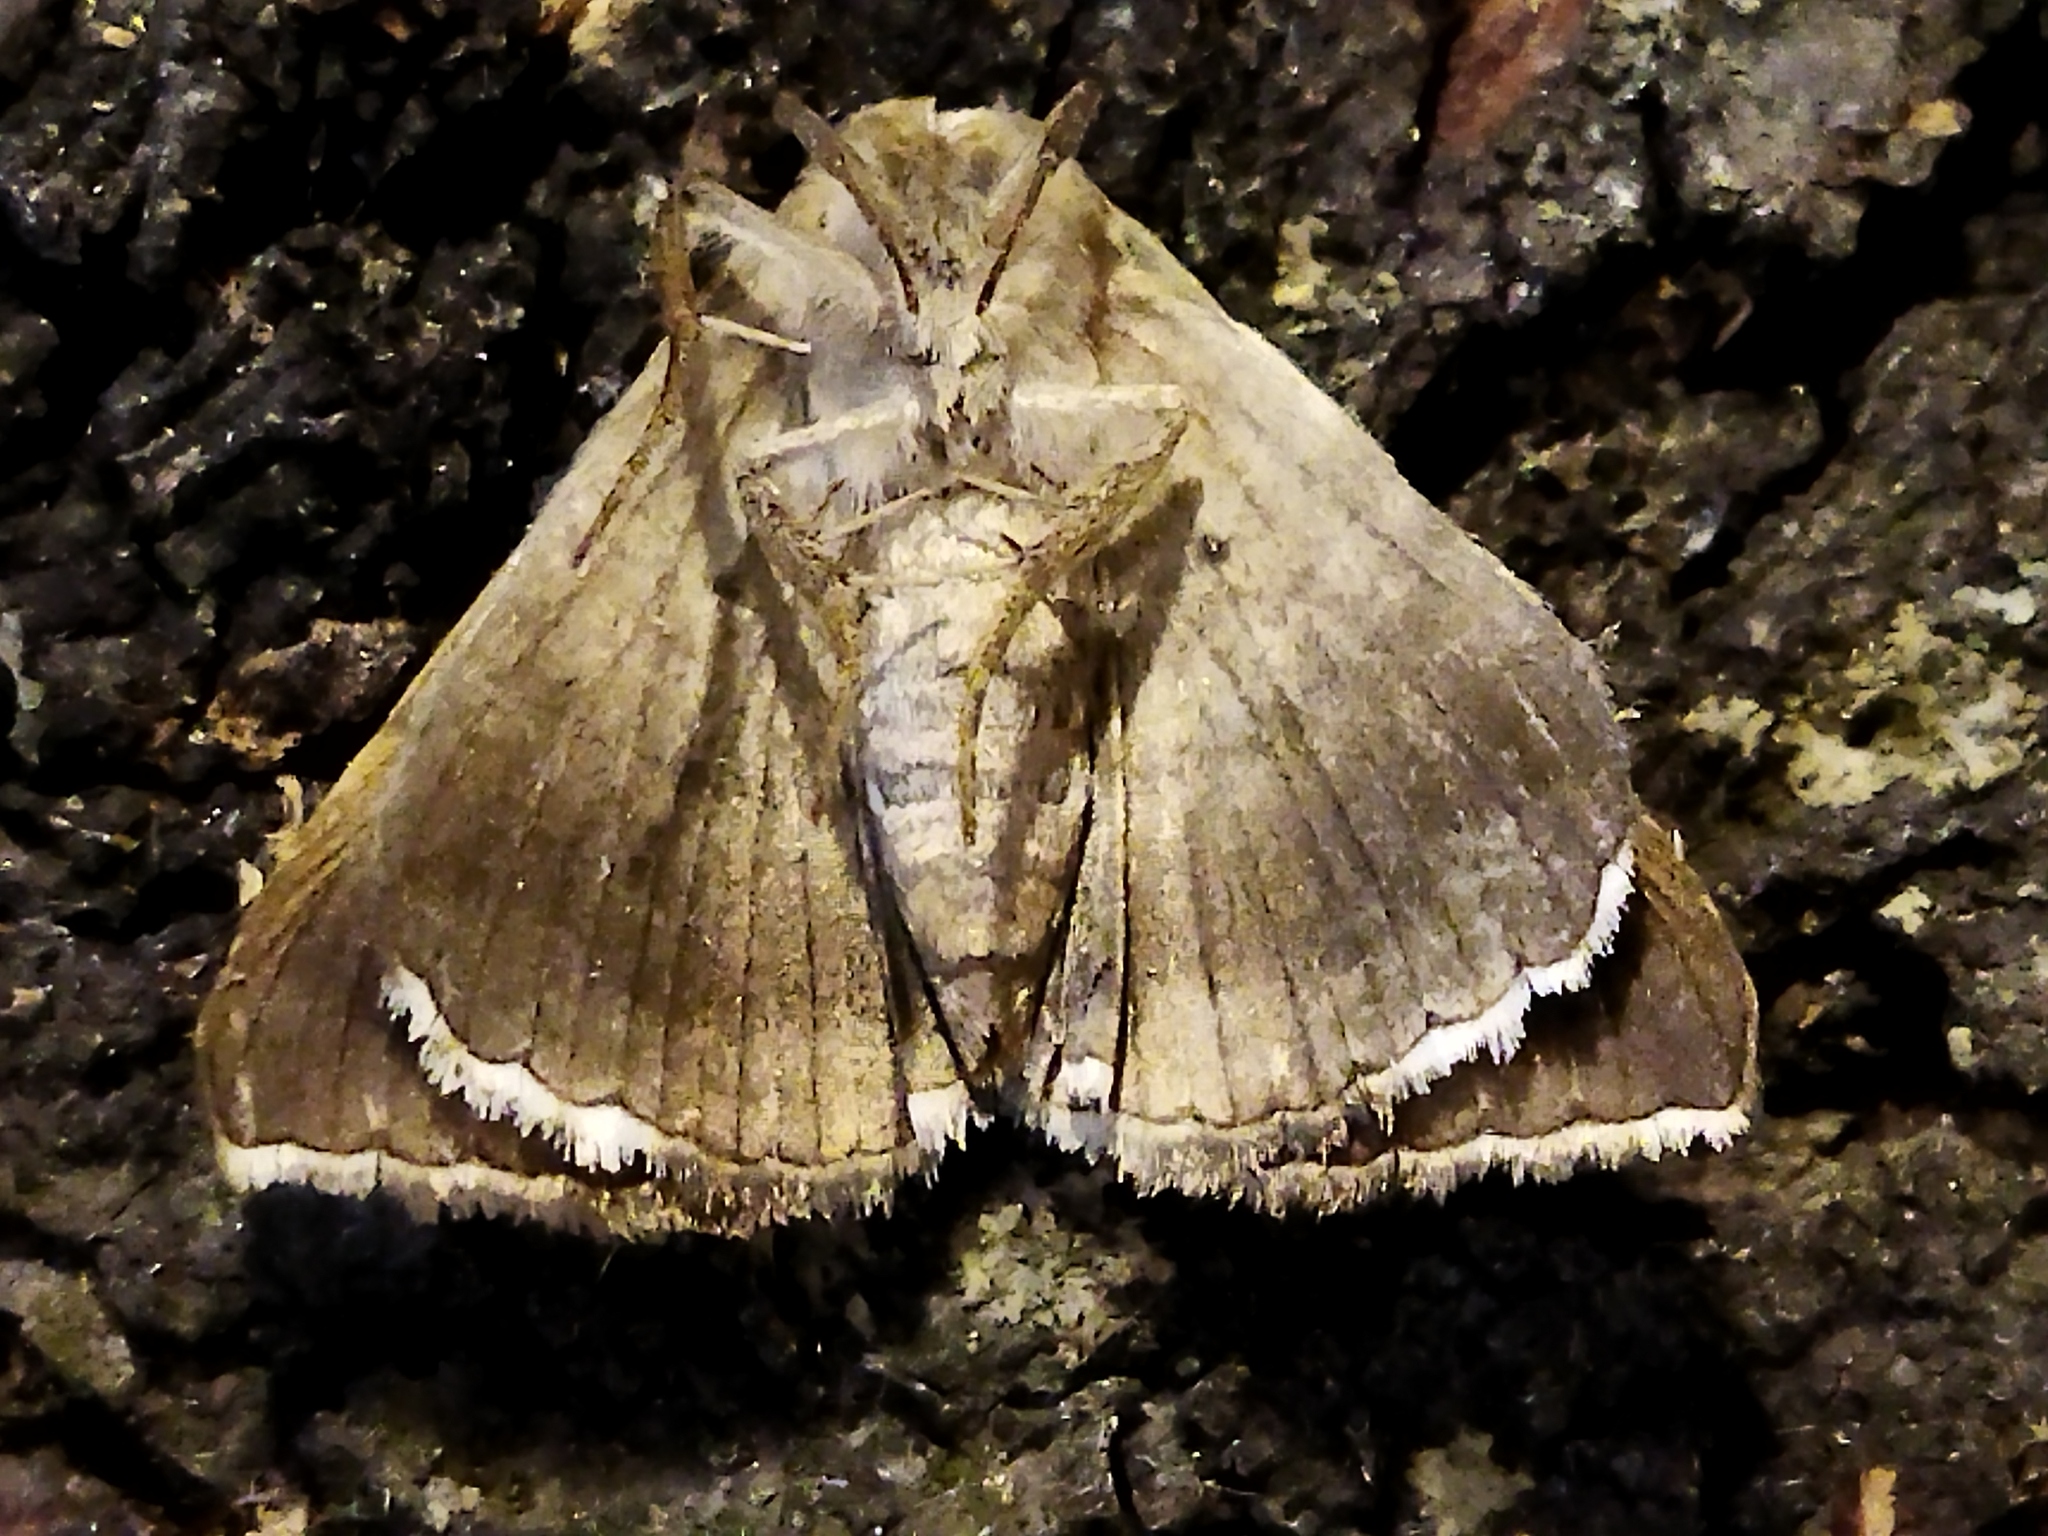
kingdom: Animalia
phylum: Arthropoda
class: Insecta
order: Lepidoptera
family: Erebidae
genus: Grammodes
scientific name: Grammodes bifasciata
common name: Parallel lines
